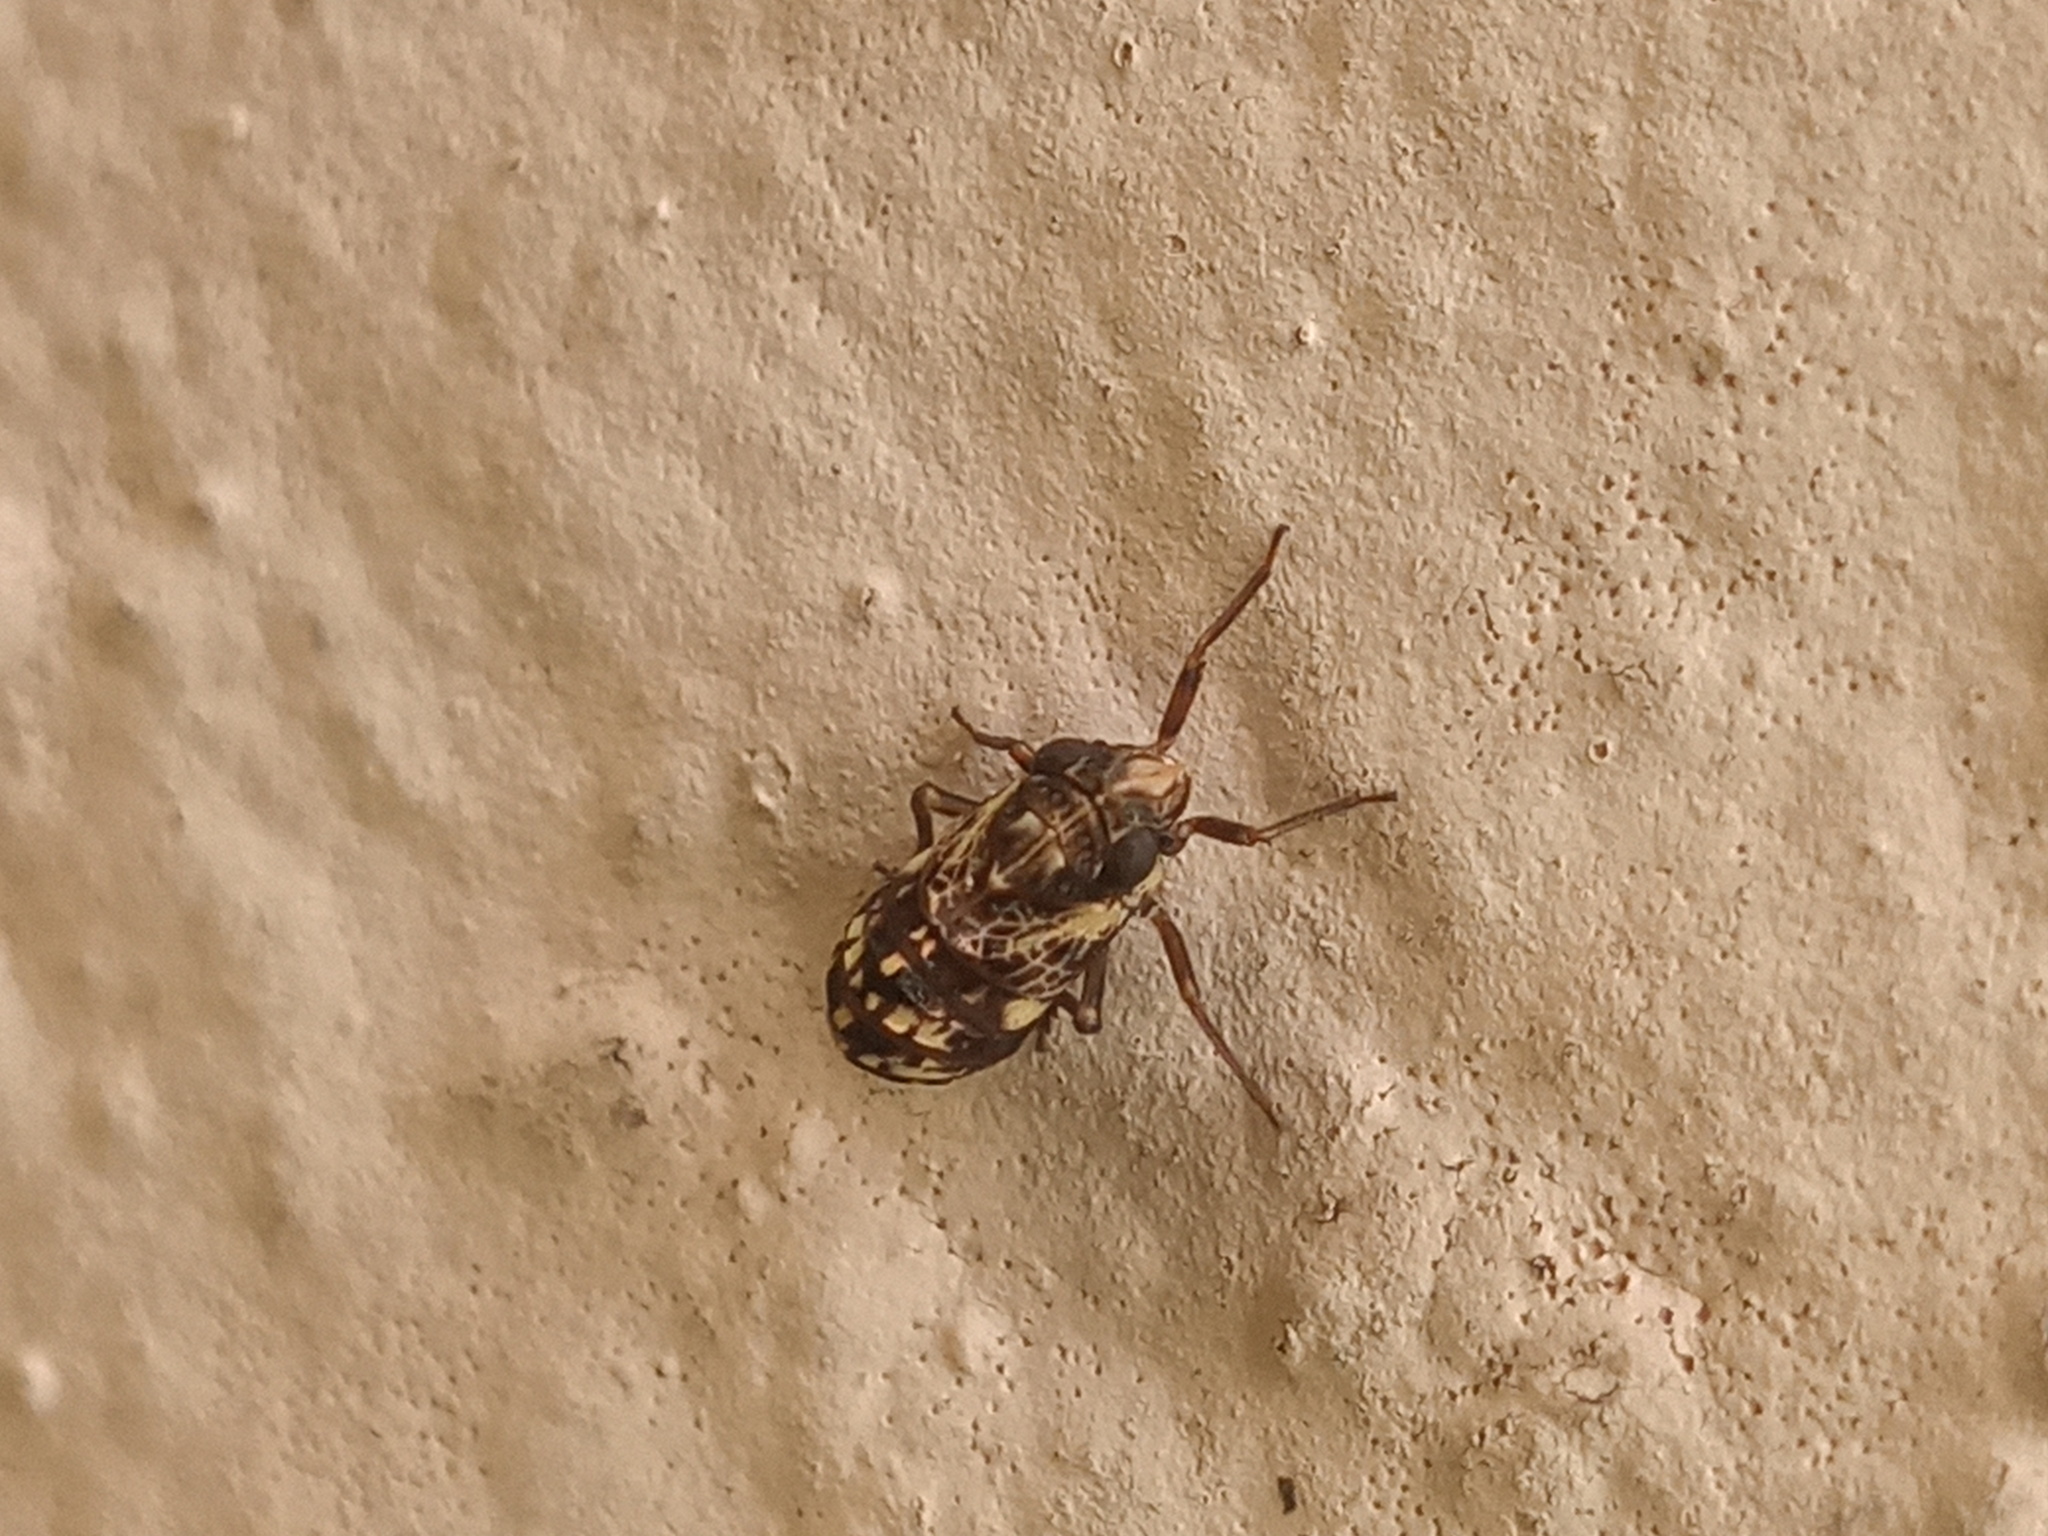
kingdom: Animalia
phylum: Arthropoda
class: Insecta
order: Hemiptera
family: Caliscelidae
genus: Bruchomorpha
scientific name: Bruchomorpha decorata
